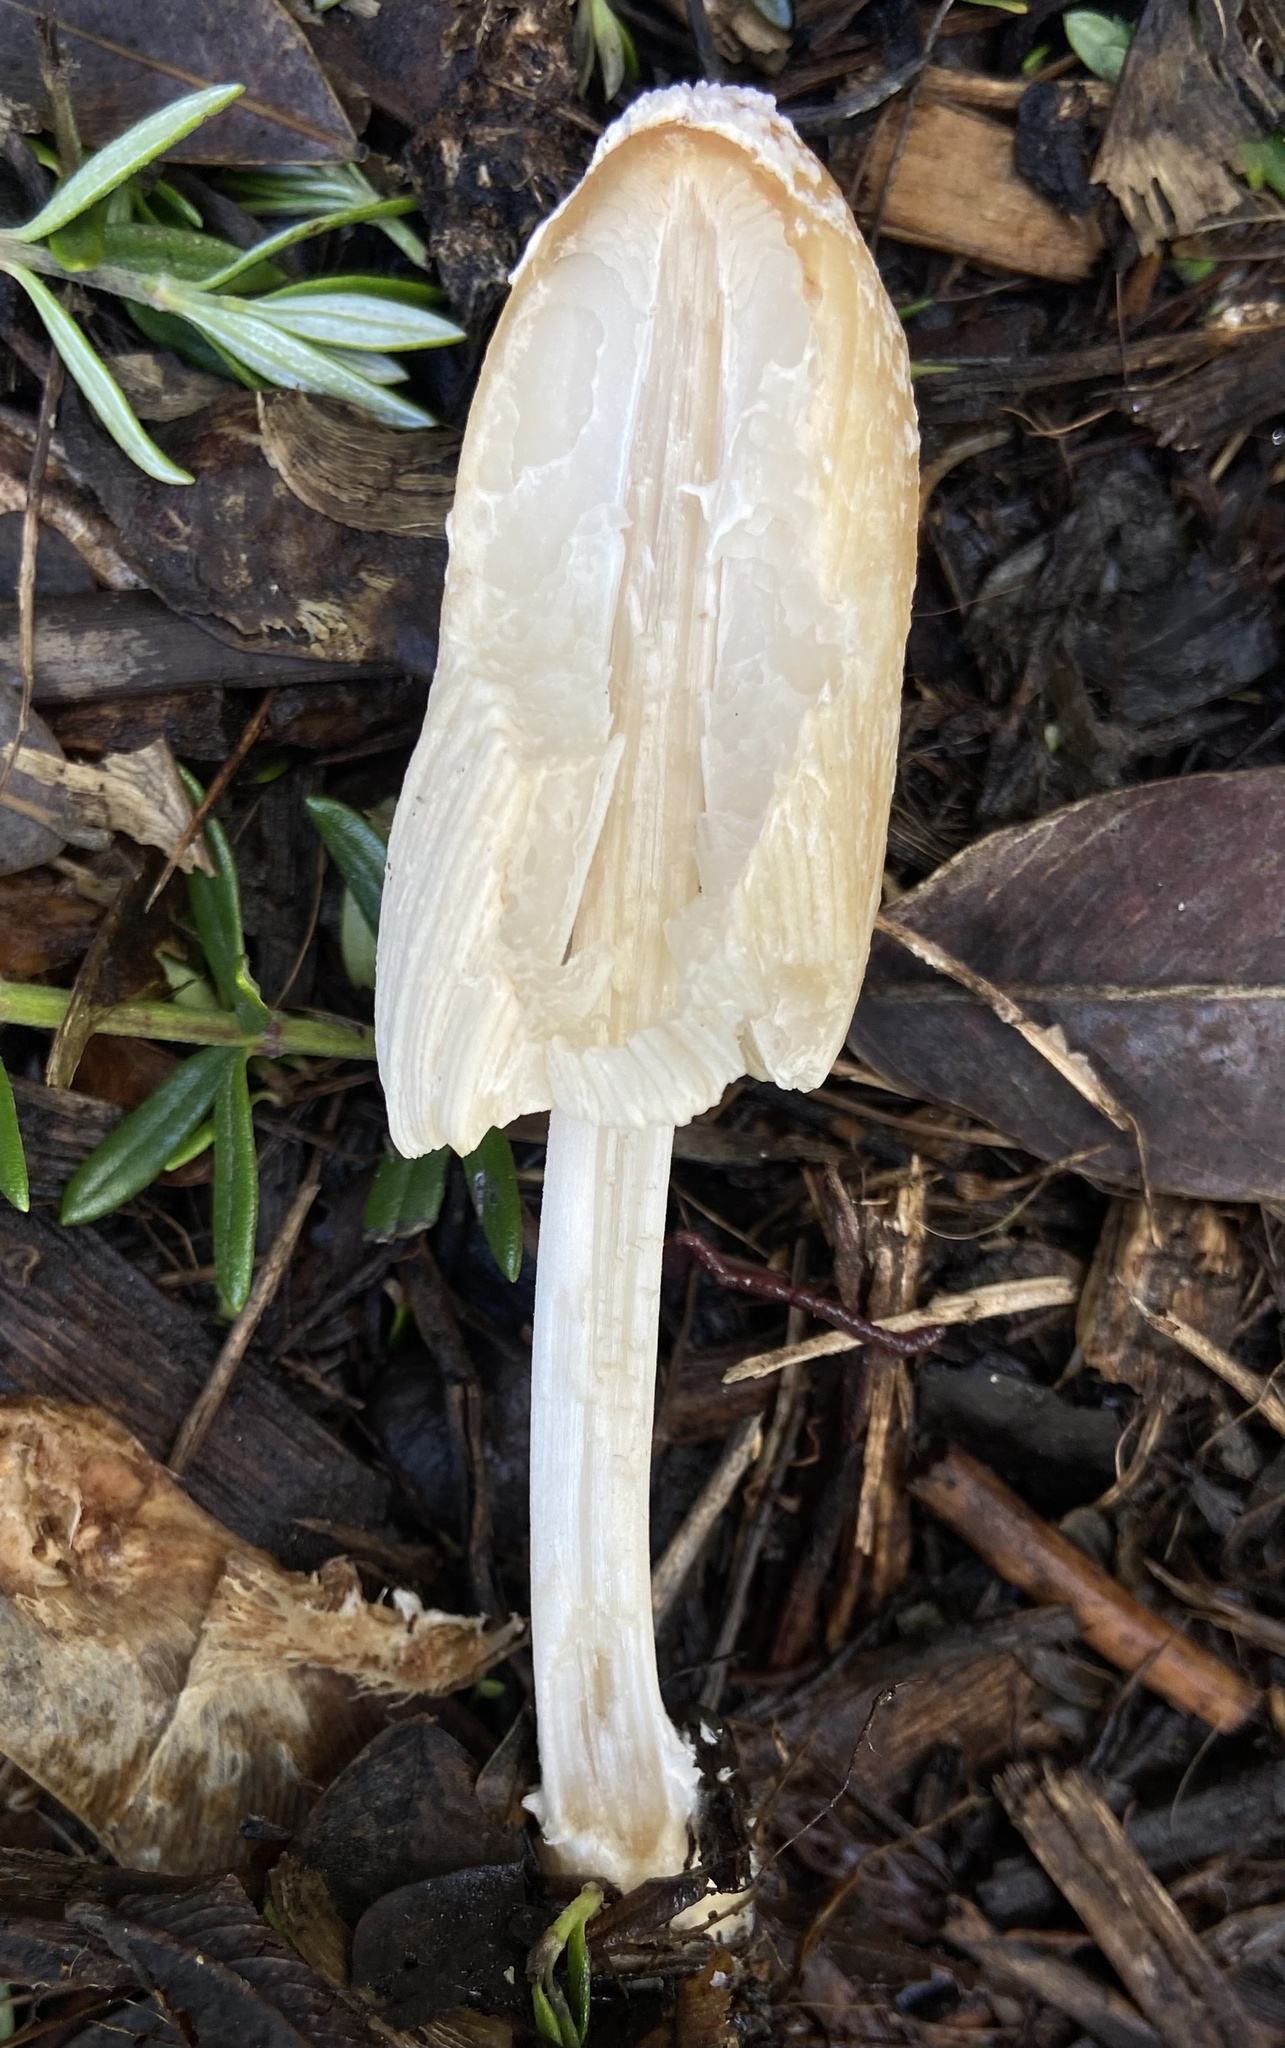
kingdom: Fungi
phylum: Basidiomycota
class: Agaricomycetes
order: Agaricales
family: Psathyrellaceae
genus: Coprinellus
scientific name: Coprinellus flocculosus
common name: Flocculose inkcap
